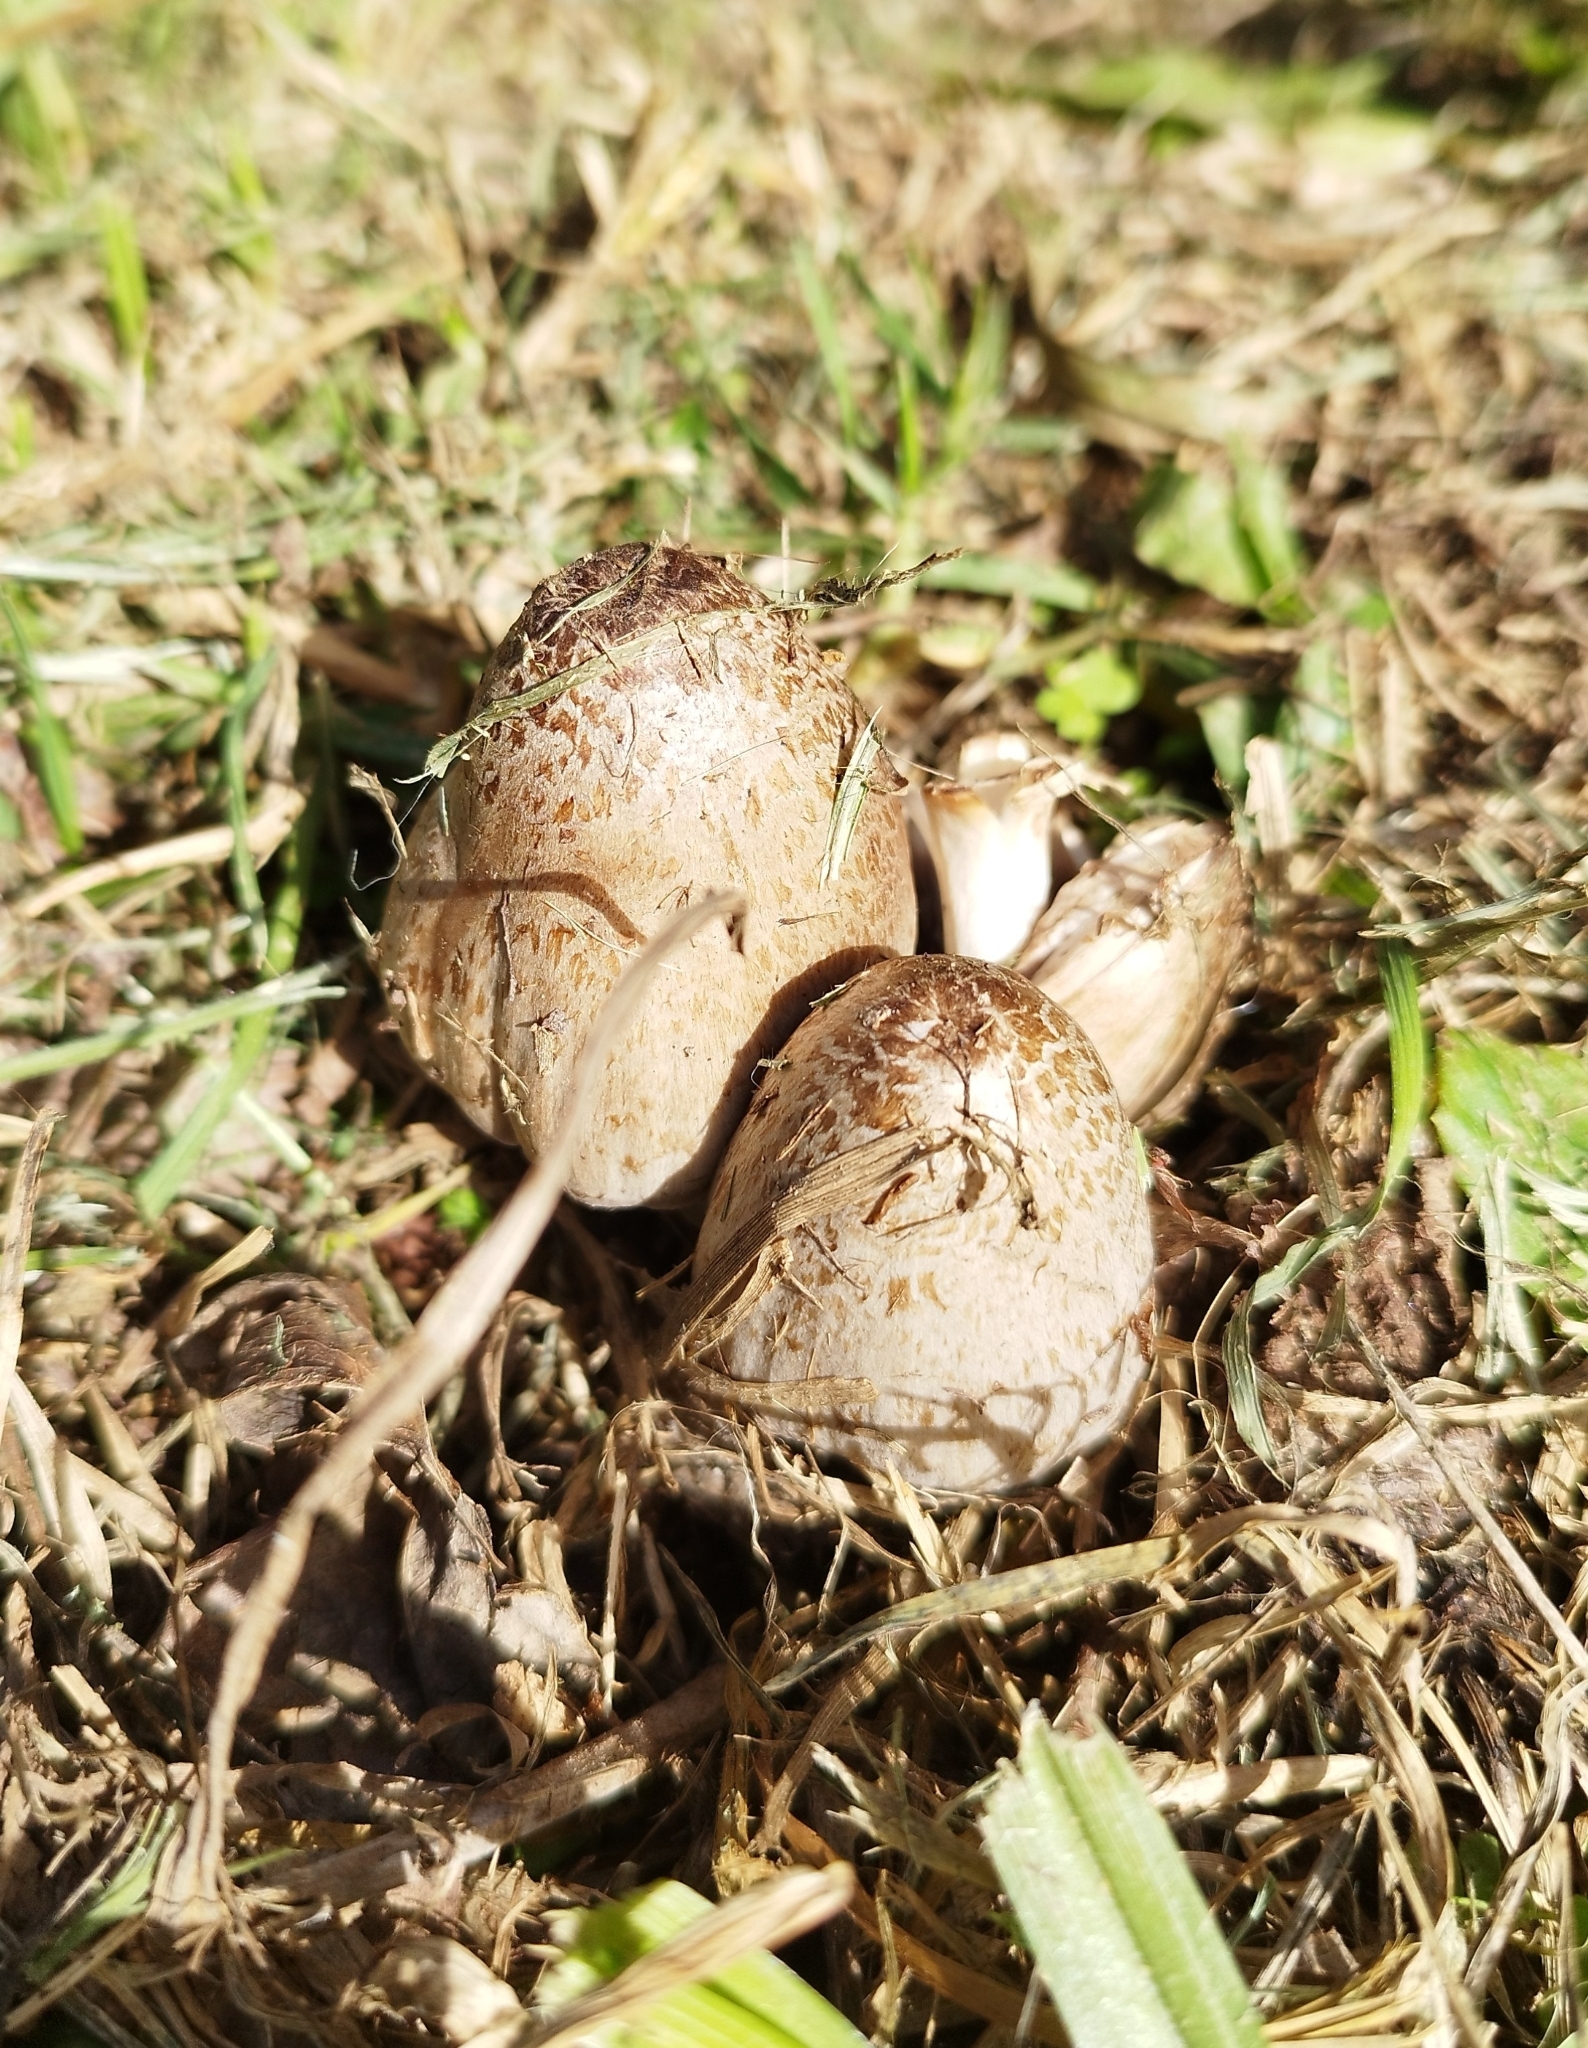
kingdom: Fungi
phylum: Basidiomycota
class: Agaricomycetes
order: Agaricales
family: Psathyrellaceae
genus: Coprinopsis
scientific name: Coprinopsis romagnesiana
